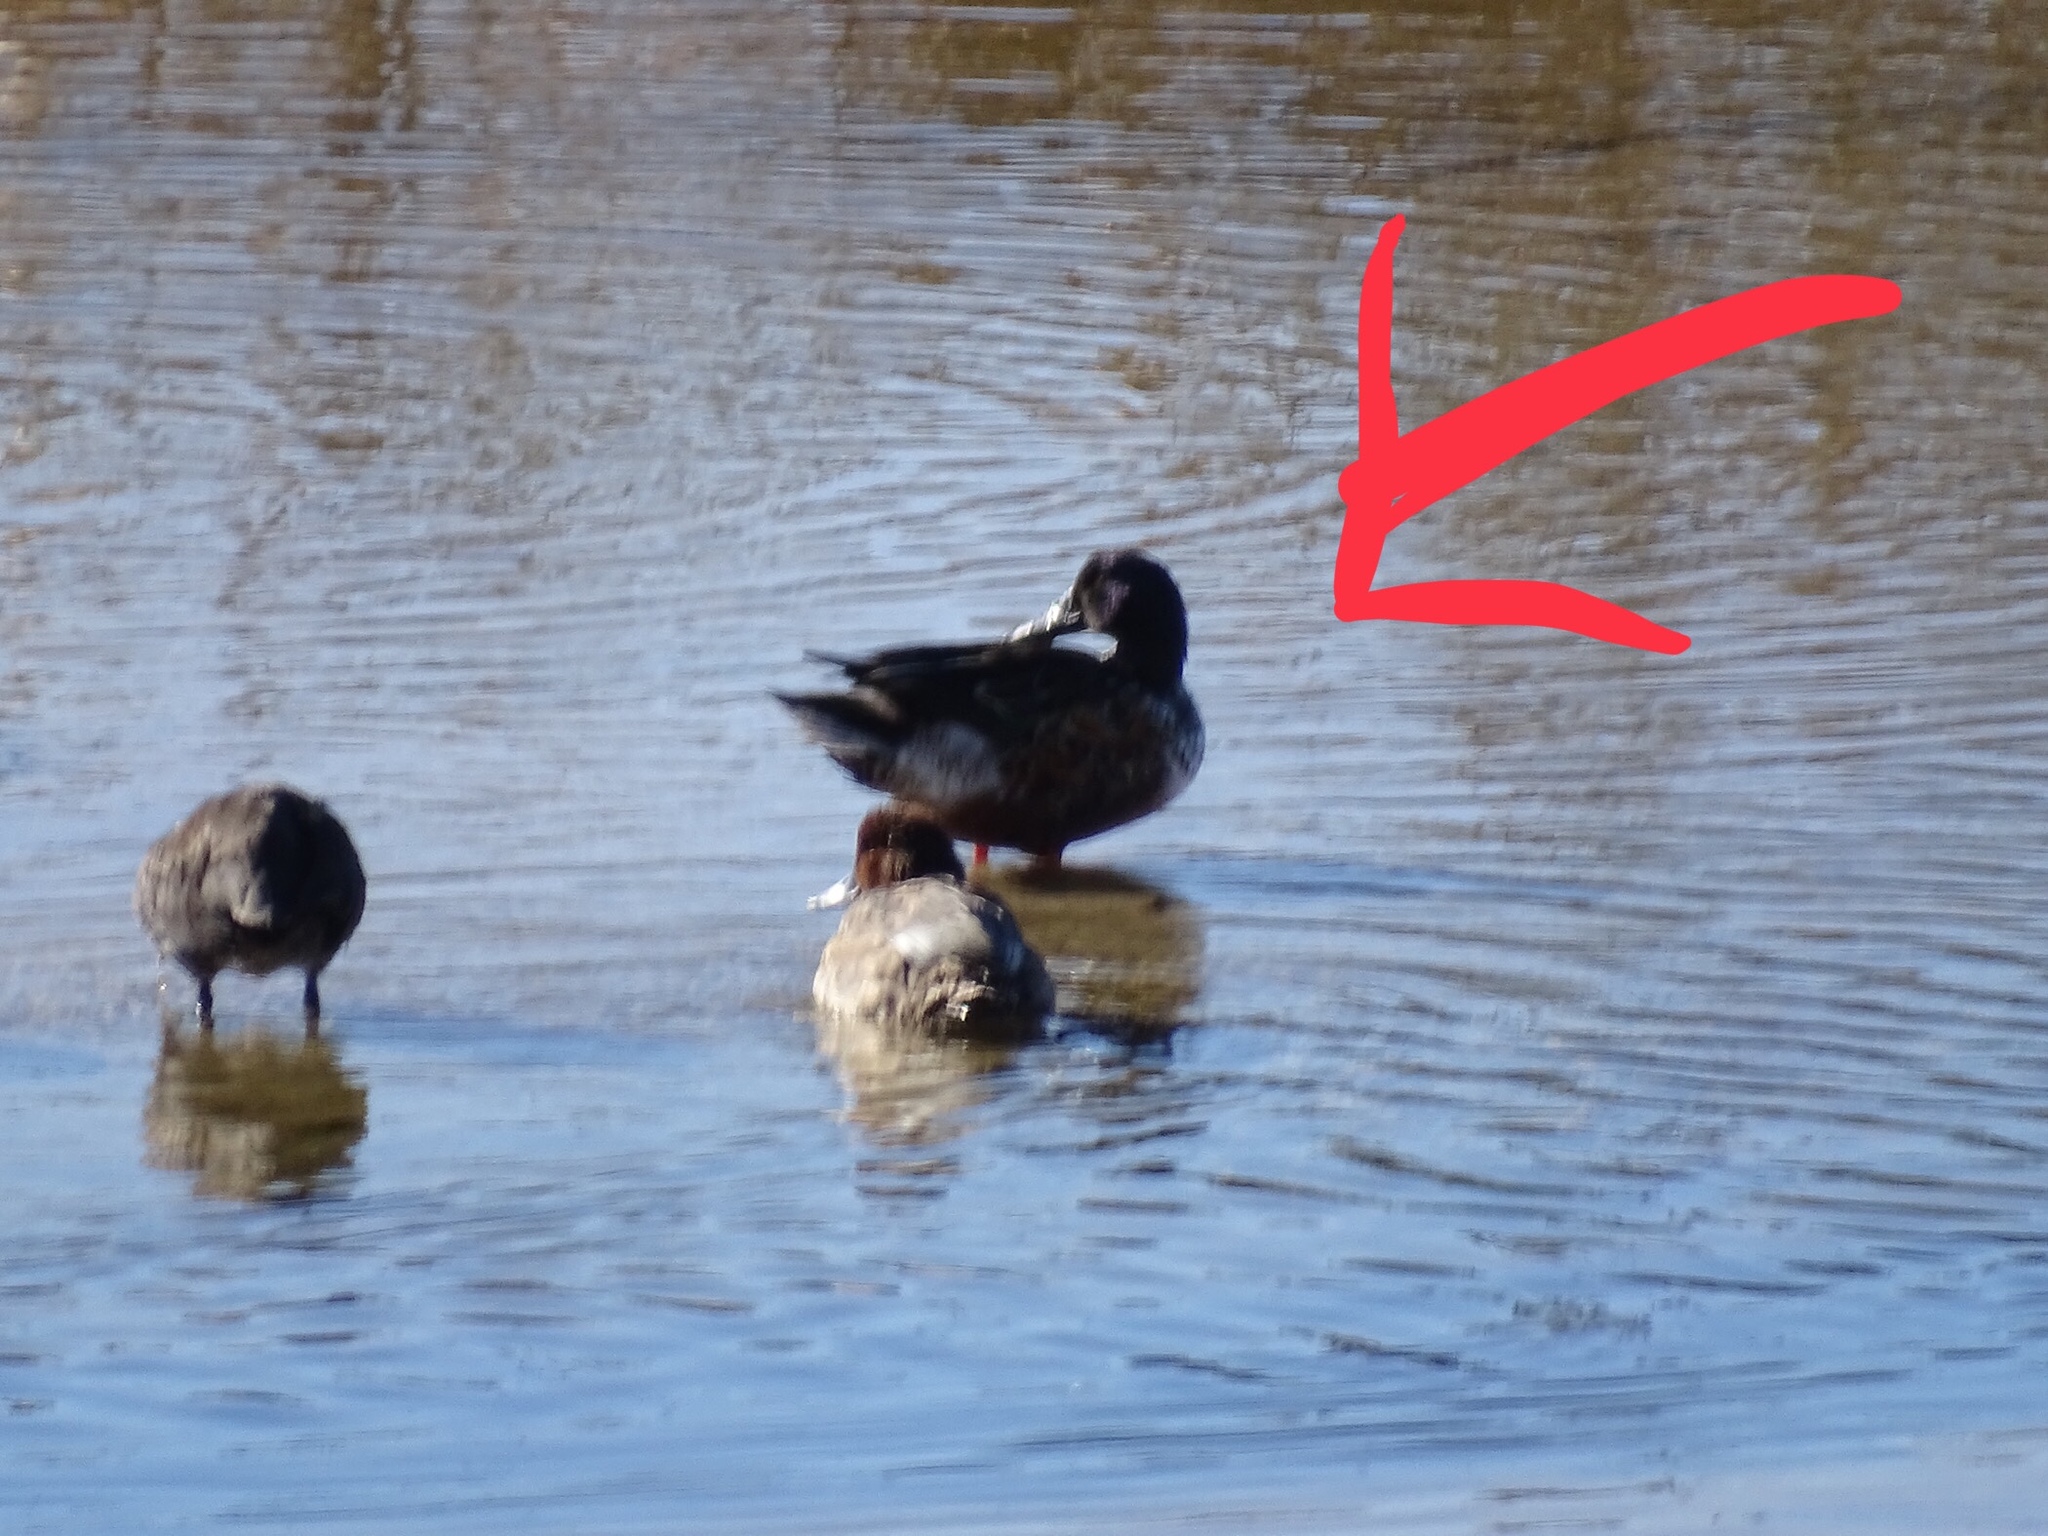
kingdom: Animalia
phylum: Chordata
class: Aves
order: Anseriformes
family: Anatidae
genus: Spatula
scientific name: Spatula clypeata
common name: Northern shoveler
